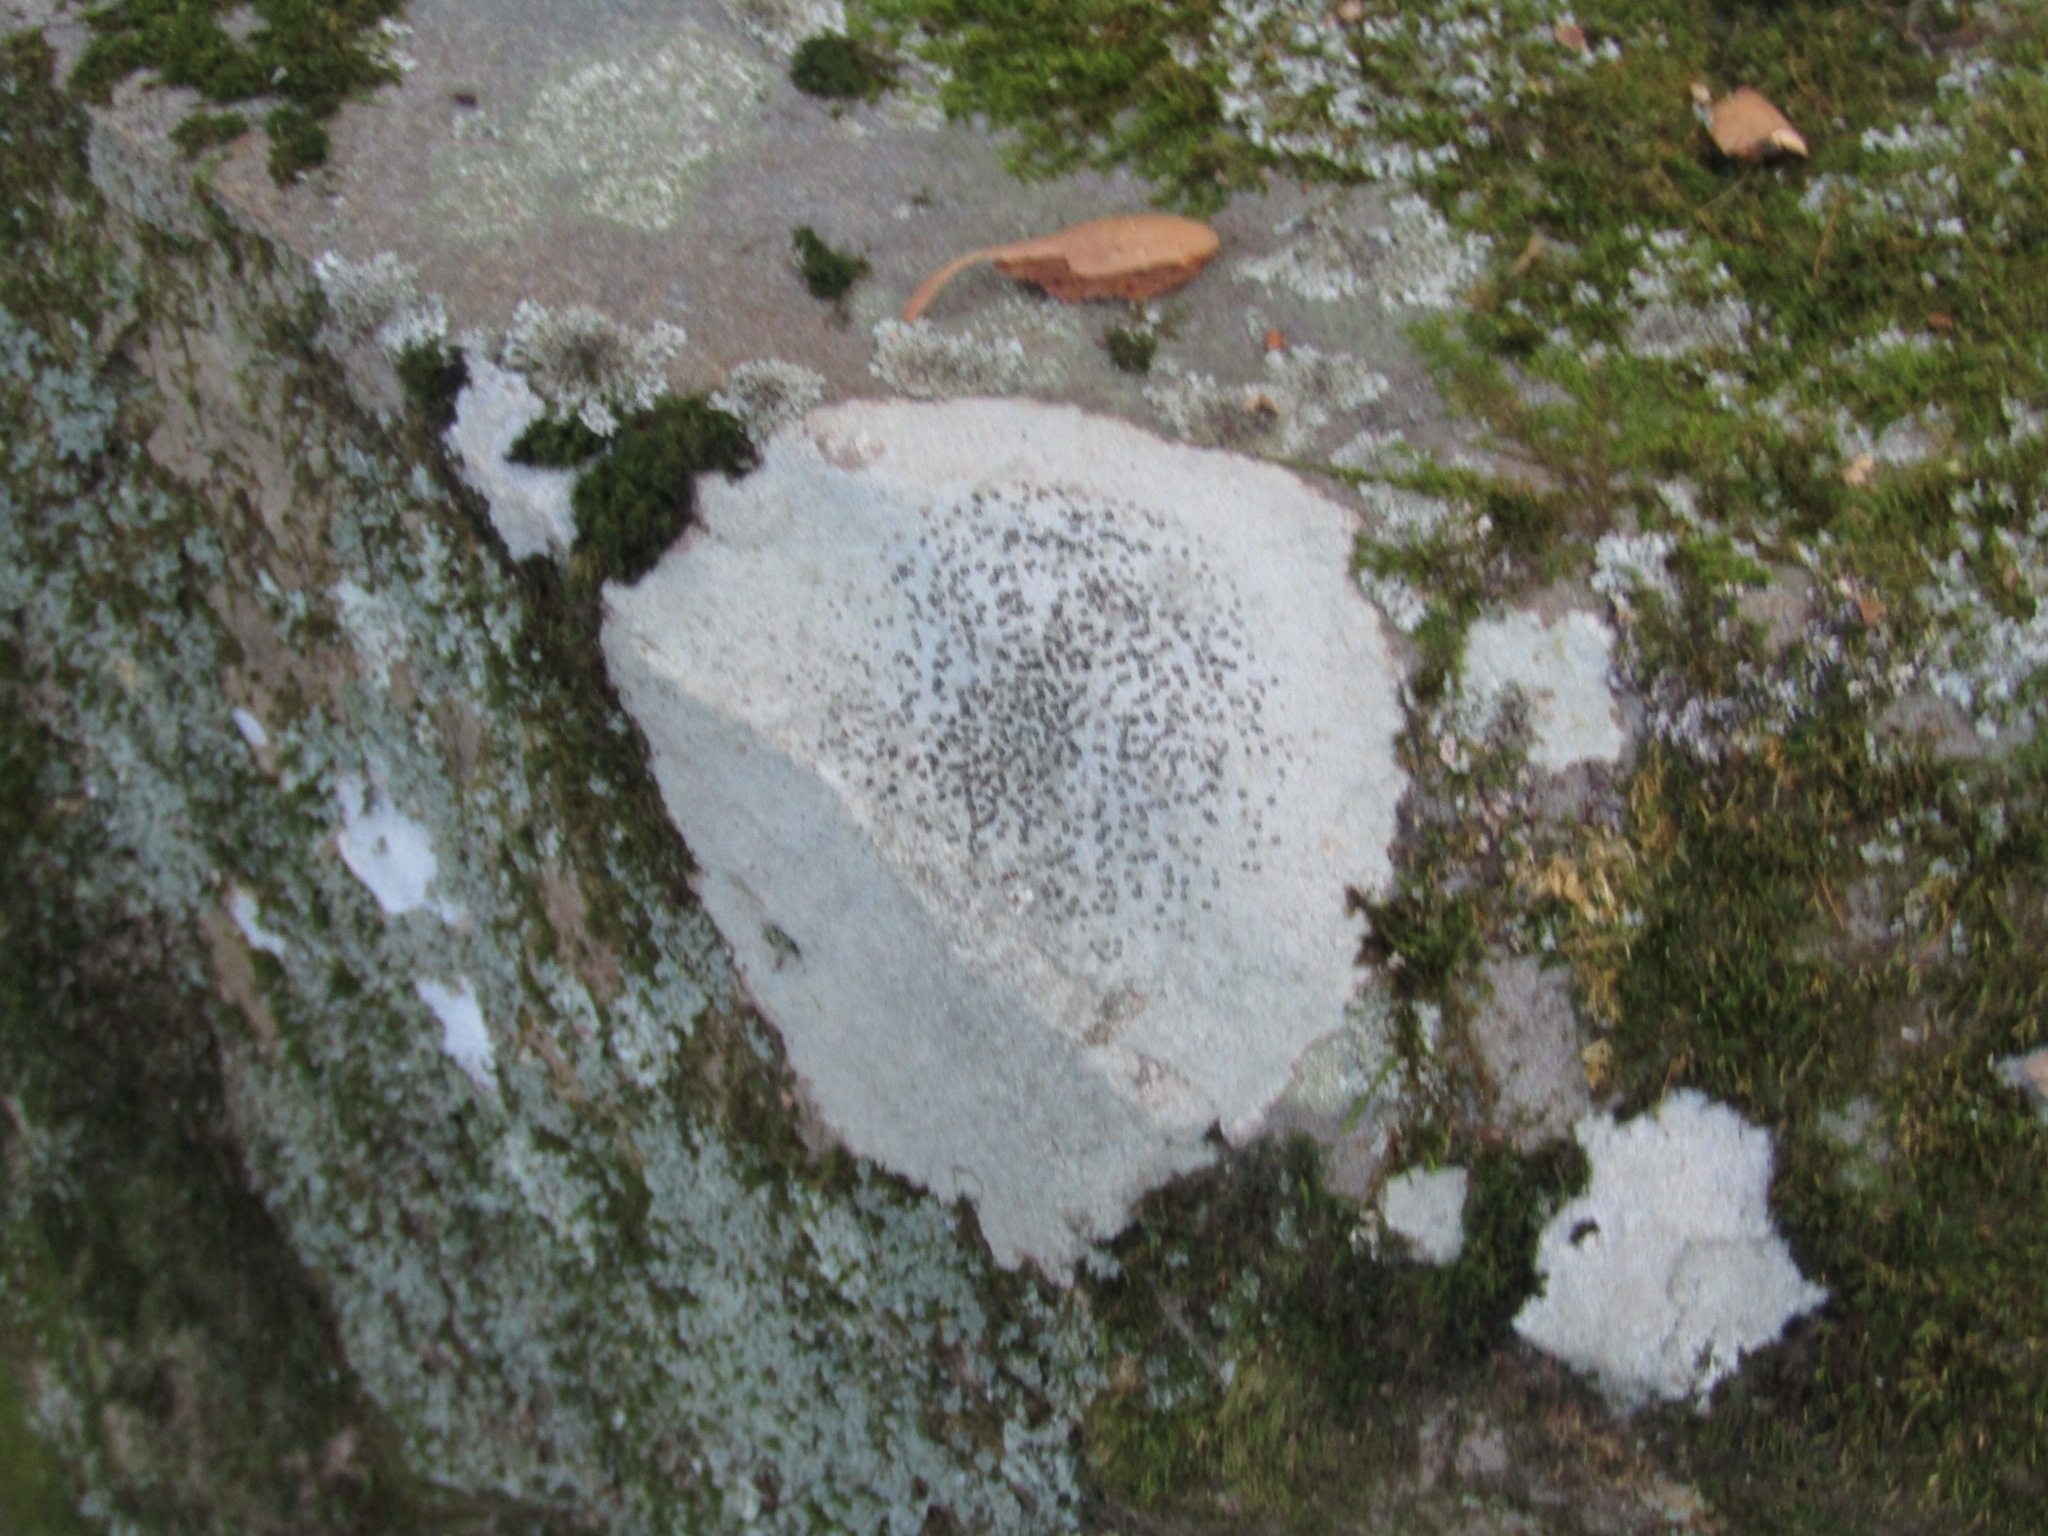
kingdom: Fungi
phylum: Ascomycota
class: Lecanoromycetes
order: Lecideales
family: Lecideaceae
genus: Porpidia
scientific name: Porpidia albocaerulescens
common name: Smokey-eyed boulder lichen
